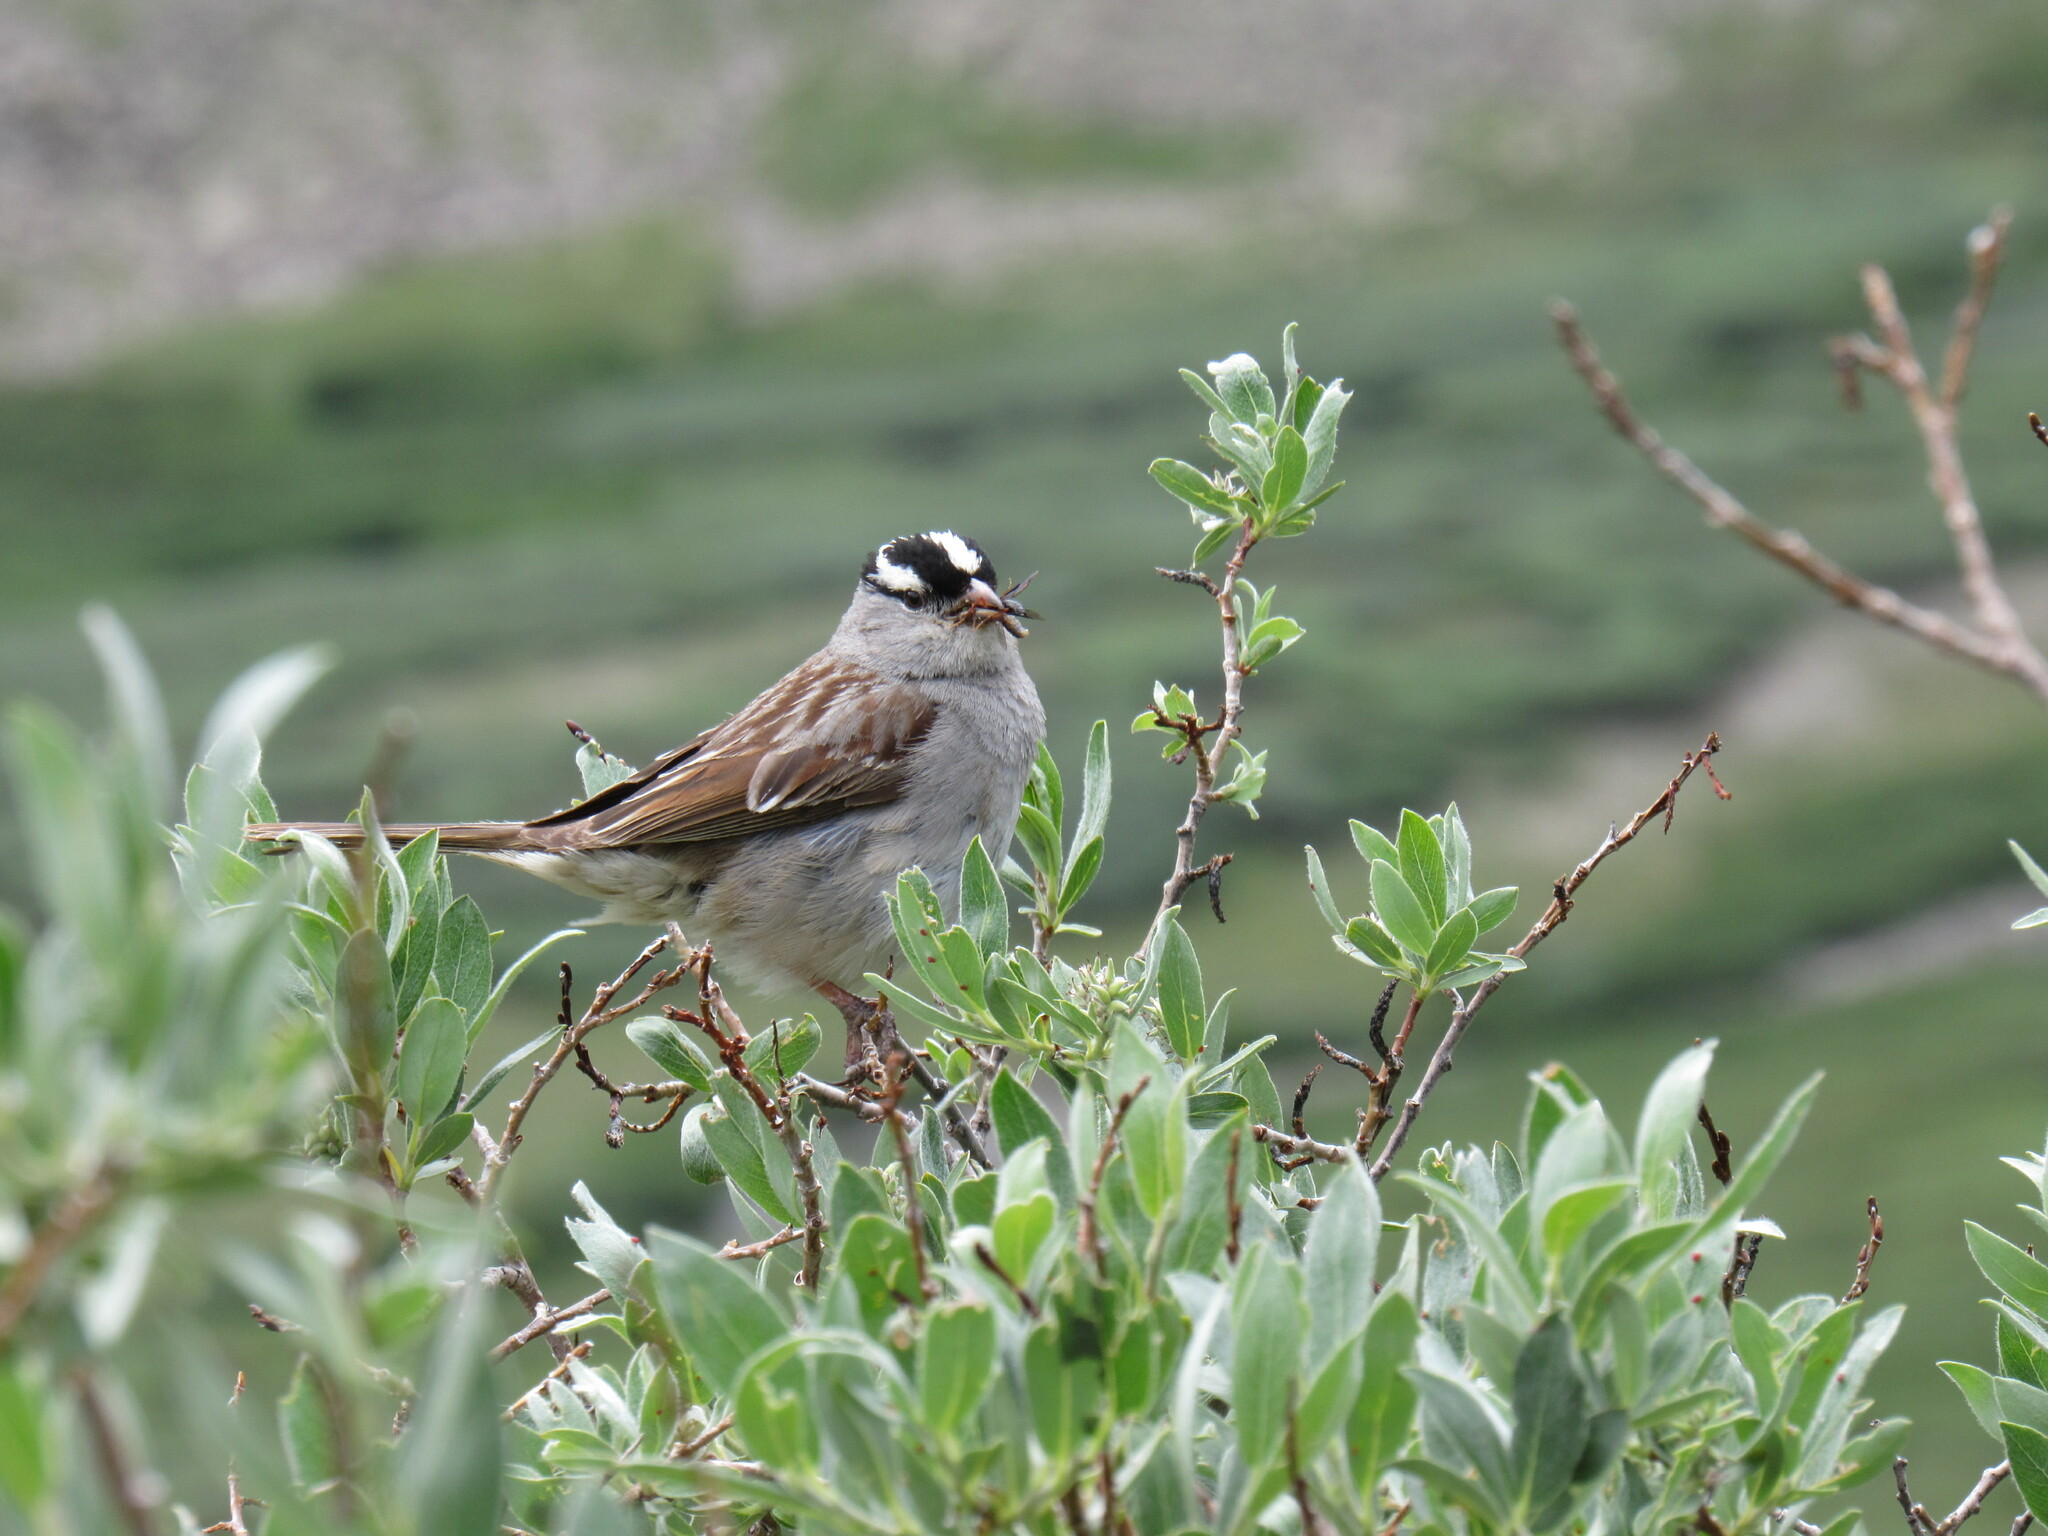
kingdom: Animalia
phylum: Chordata
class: Aves
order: Passeriformes
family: Passerellidae
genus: Zonotrichia
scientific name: Zonotrichia leucophrys
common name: White-crowned sparrow
